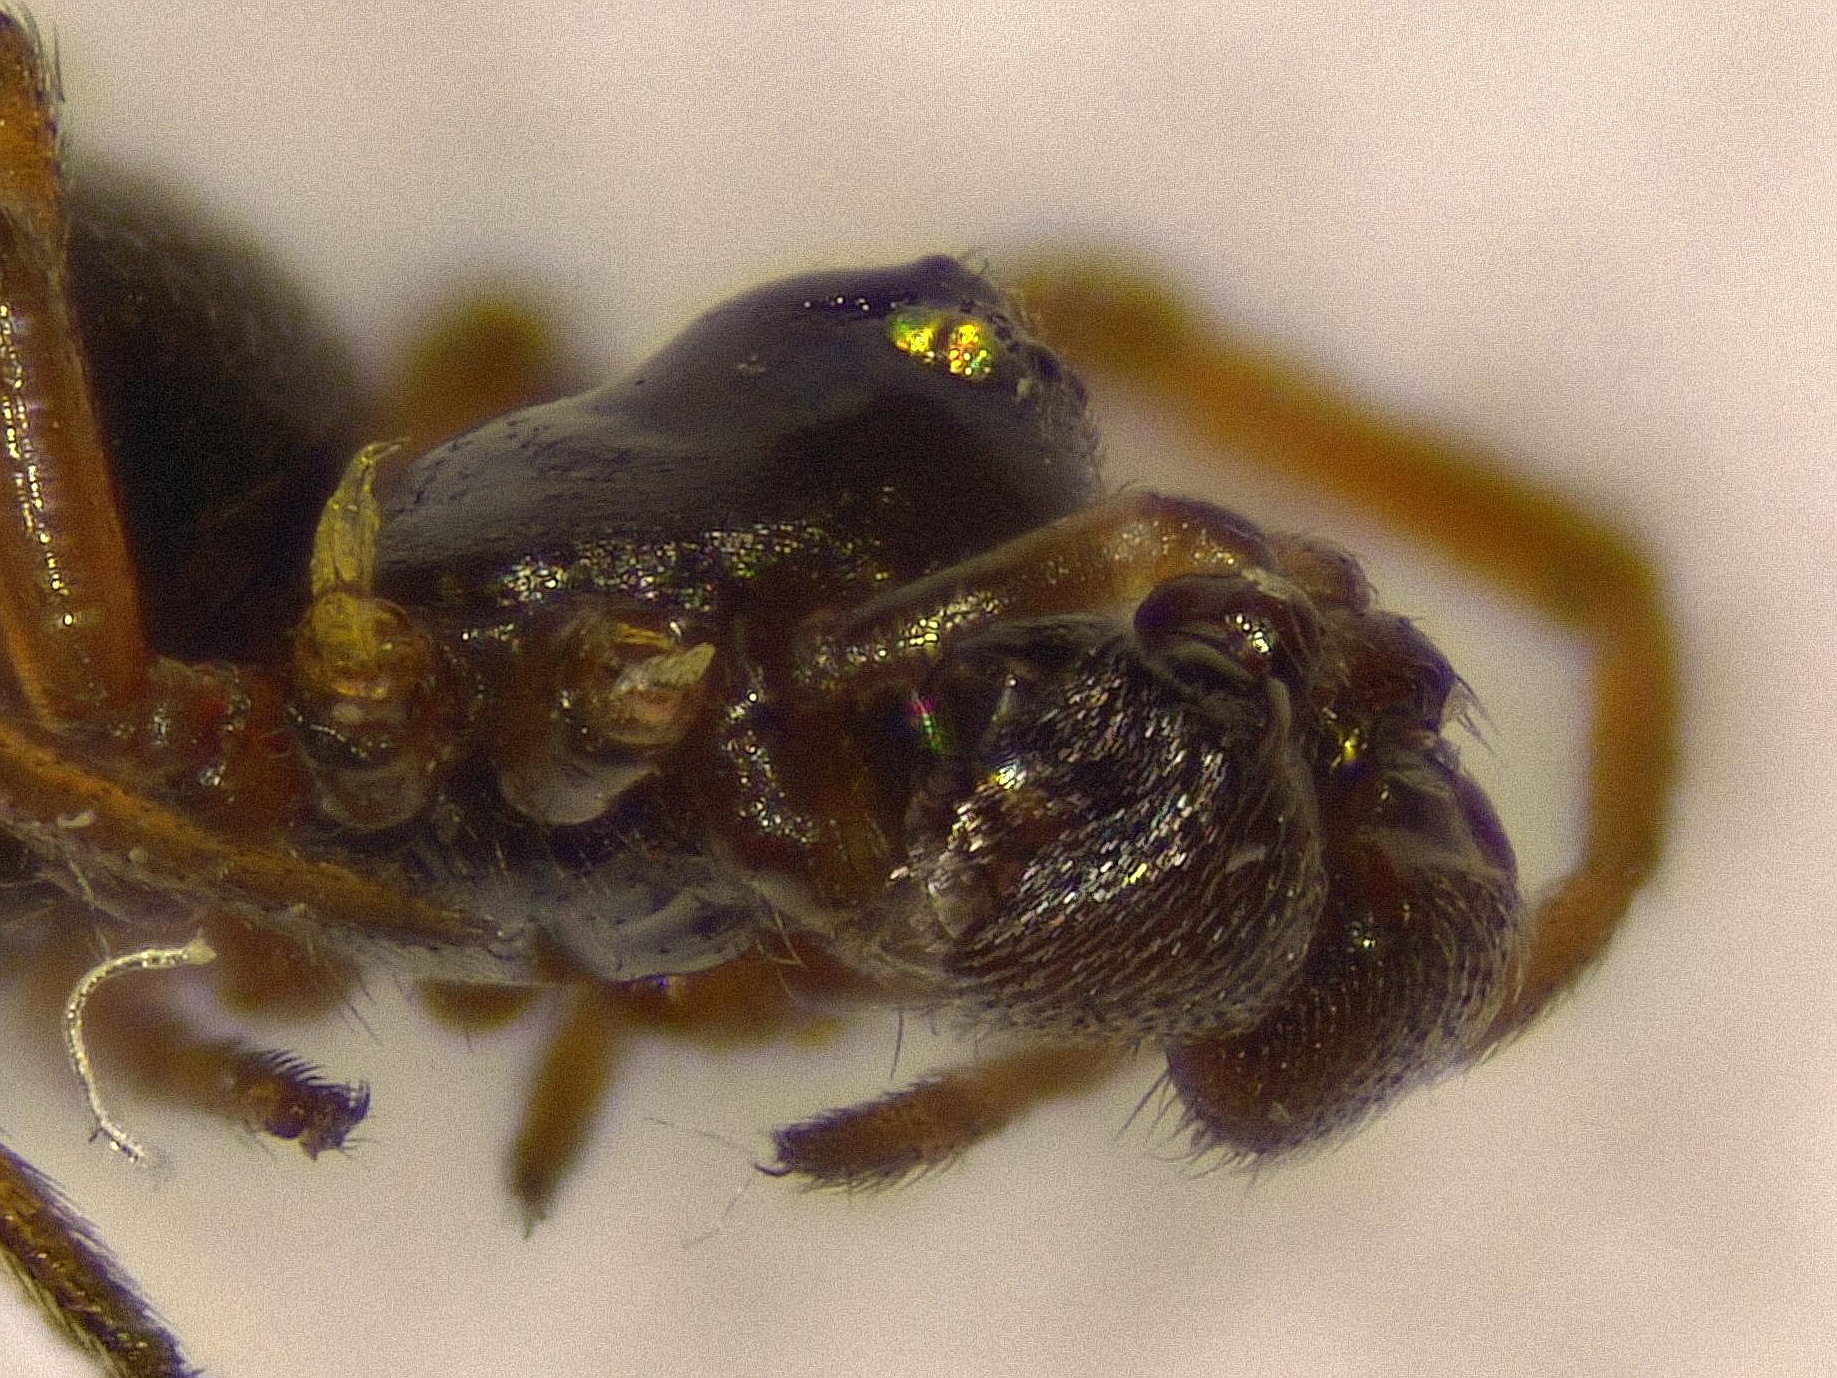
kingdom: Animalia
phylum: Arthropoda
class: Arachnida
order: Araneae
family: Linyphiidae
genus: Silometopus
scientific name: Silometopus reussi
